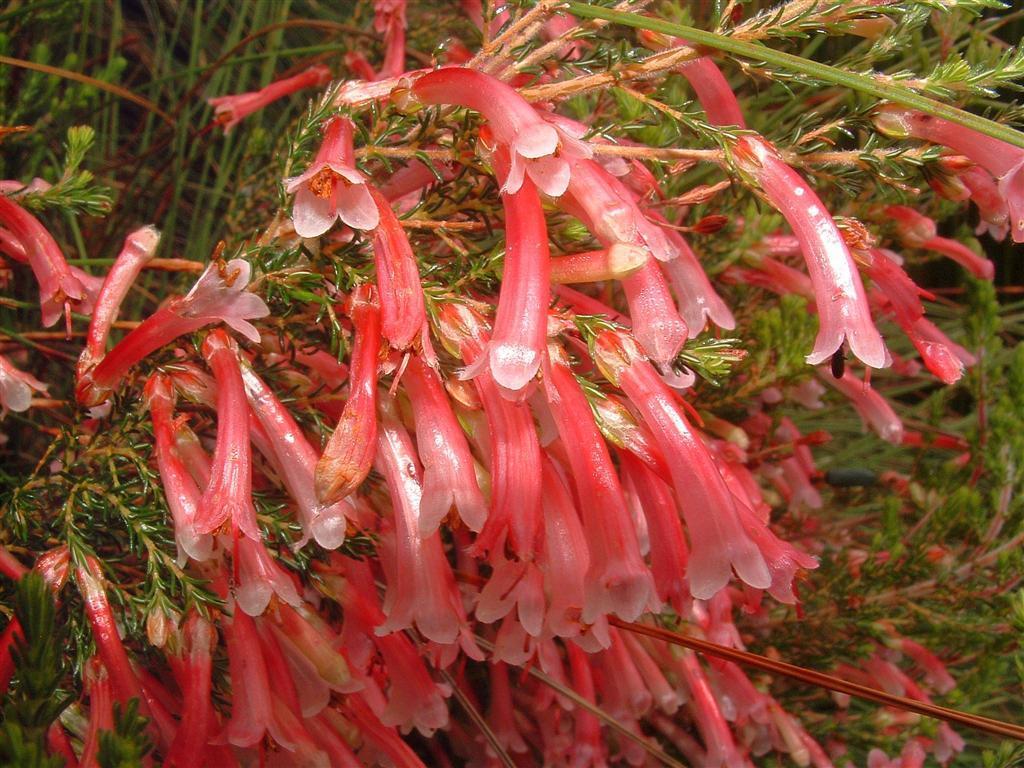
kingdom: Plantae
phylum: Tracheophyta
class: Magnoliopsida
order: Ericales
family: Ericaceae
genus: Erica
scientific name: Erica curviflora
